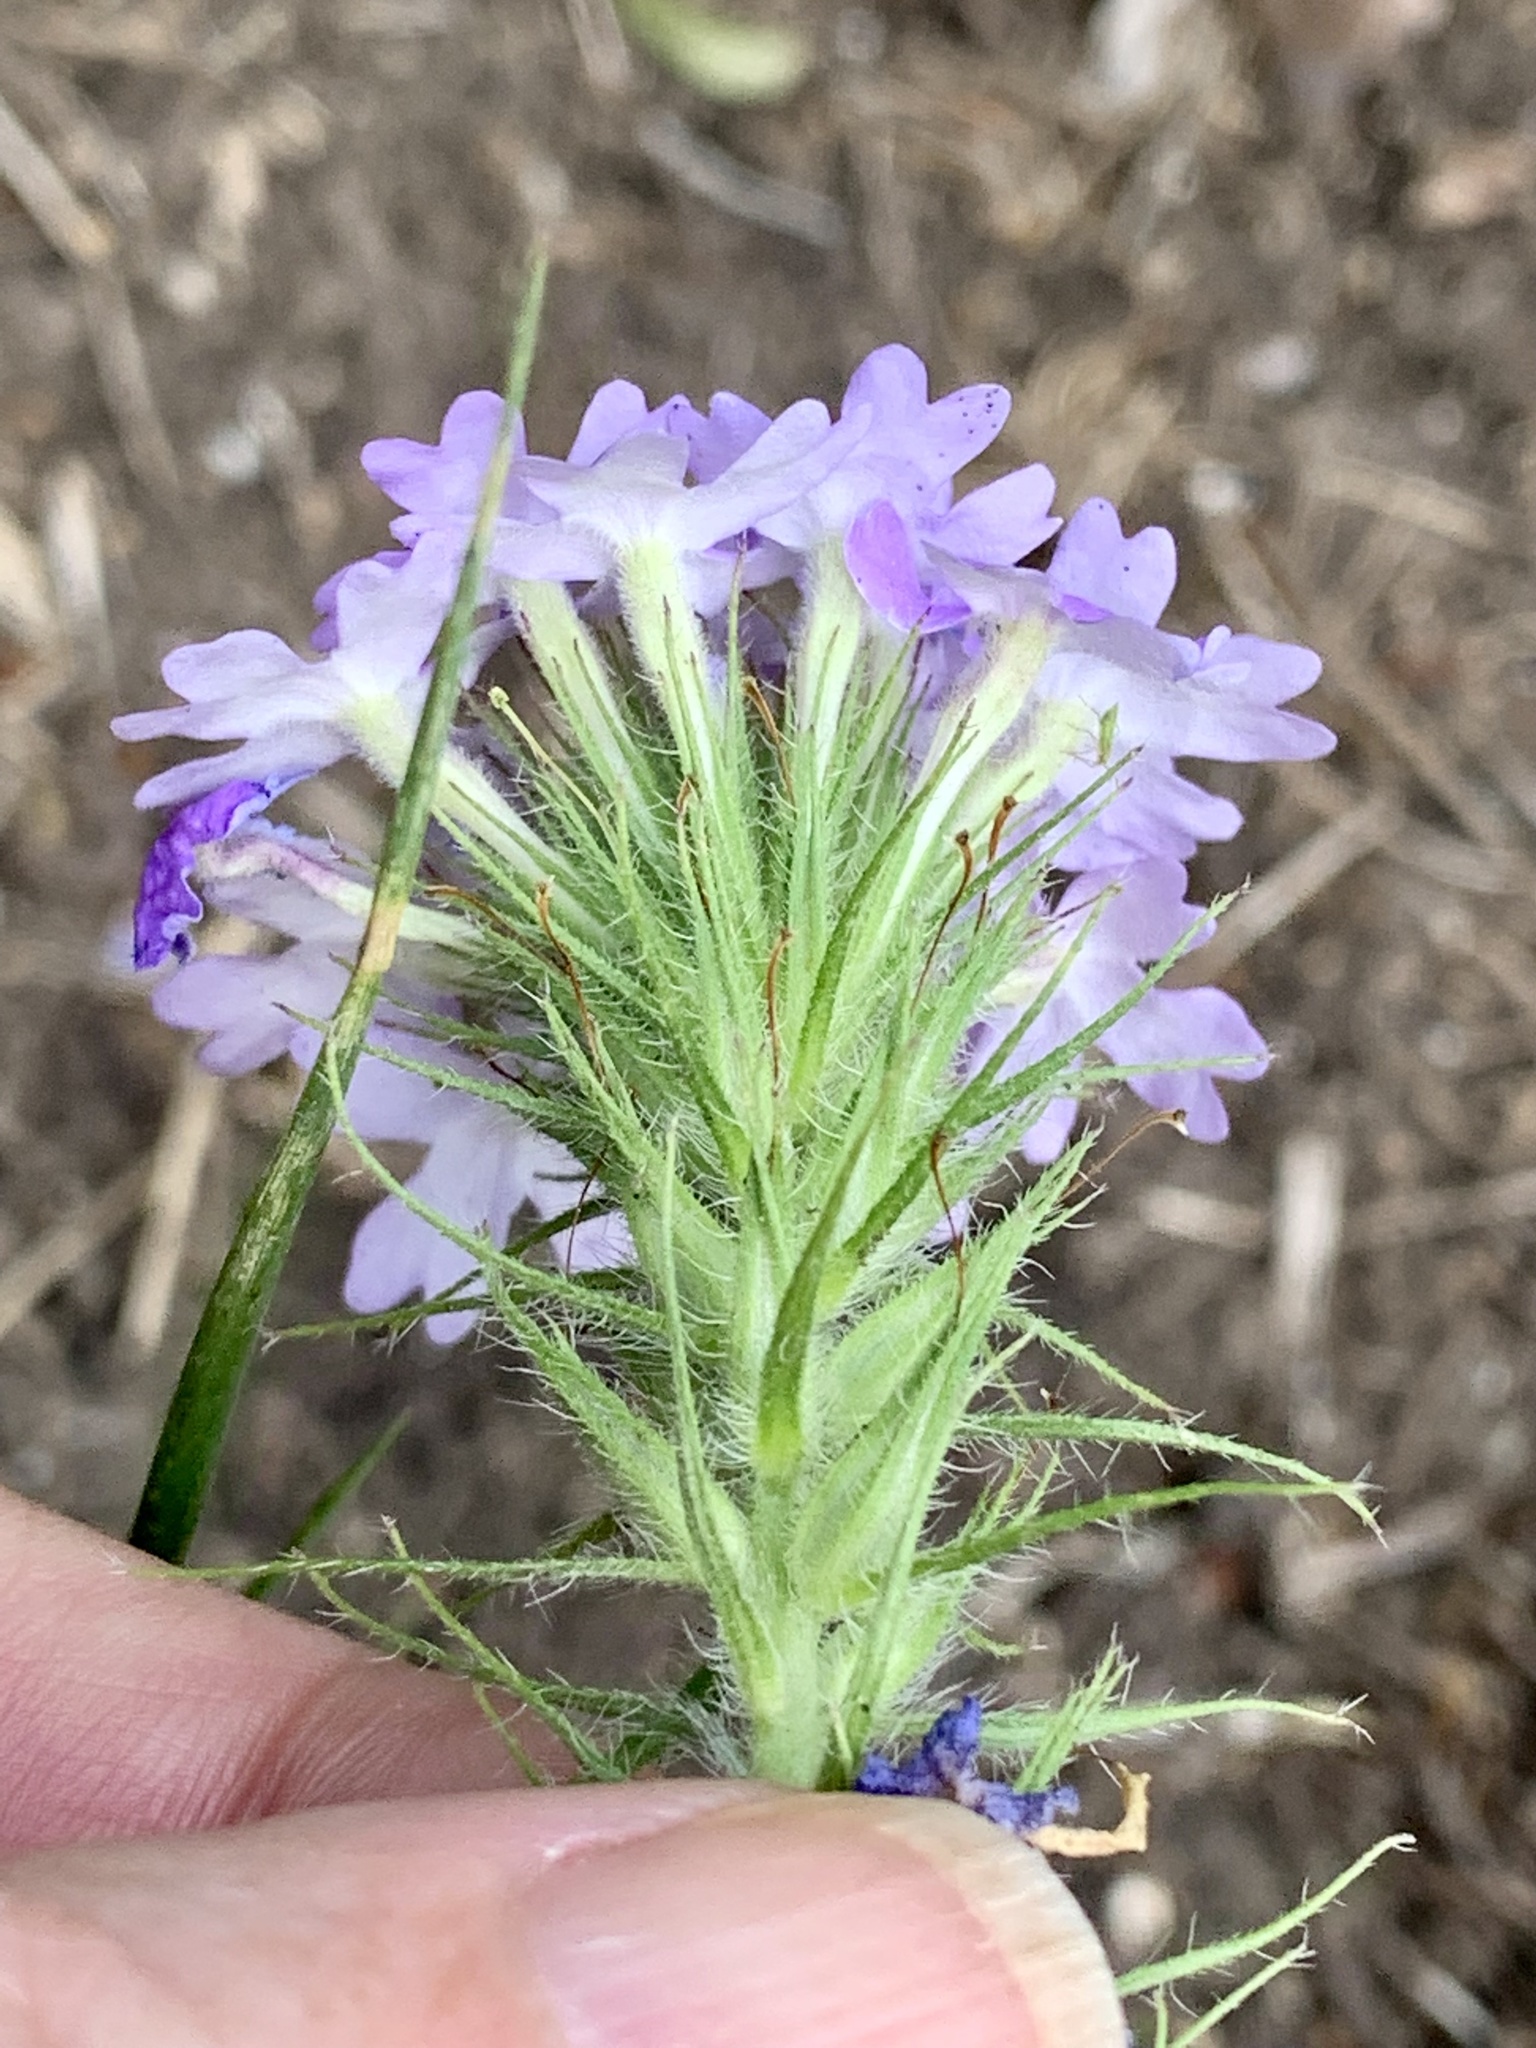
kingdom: Plantae
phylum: Tracheophyta
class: Magnoliopsida
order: Lamiales
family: Verbenaceae
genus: Verbena
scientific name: Verbena bipinnatifida
